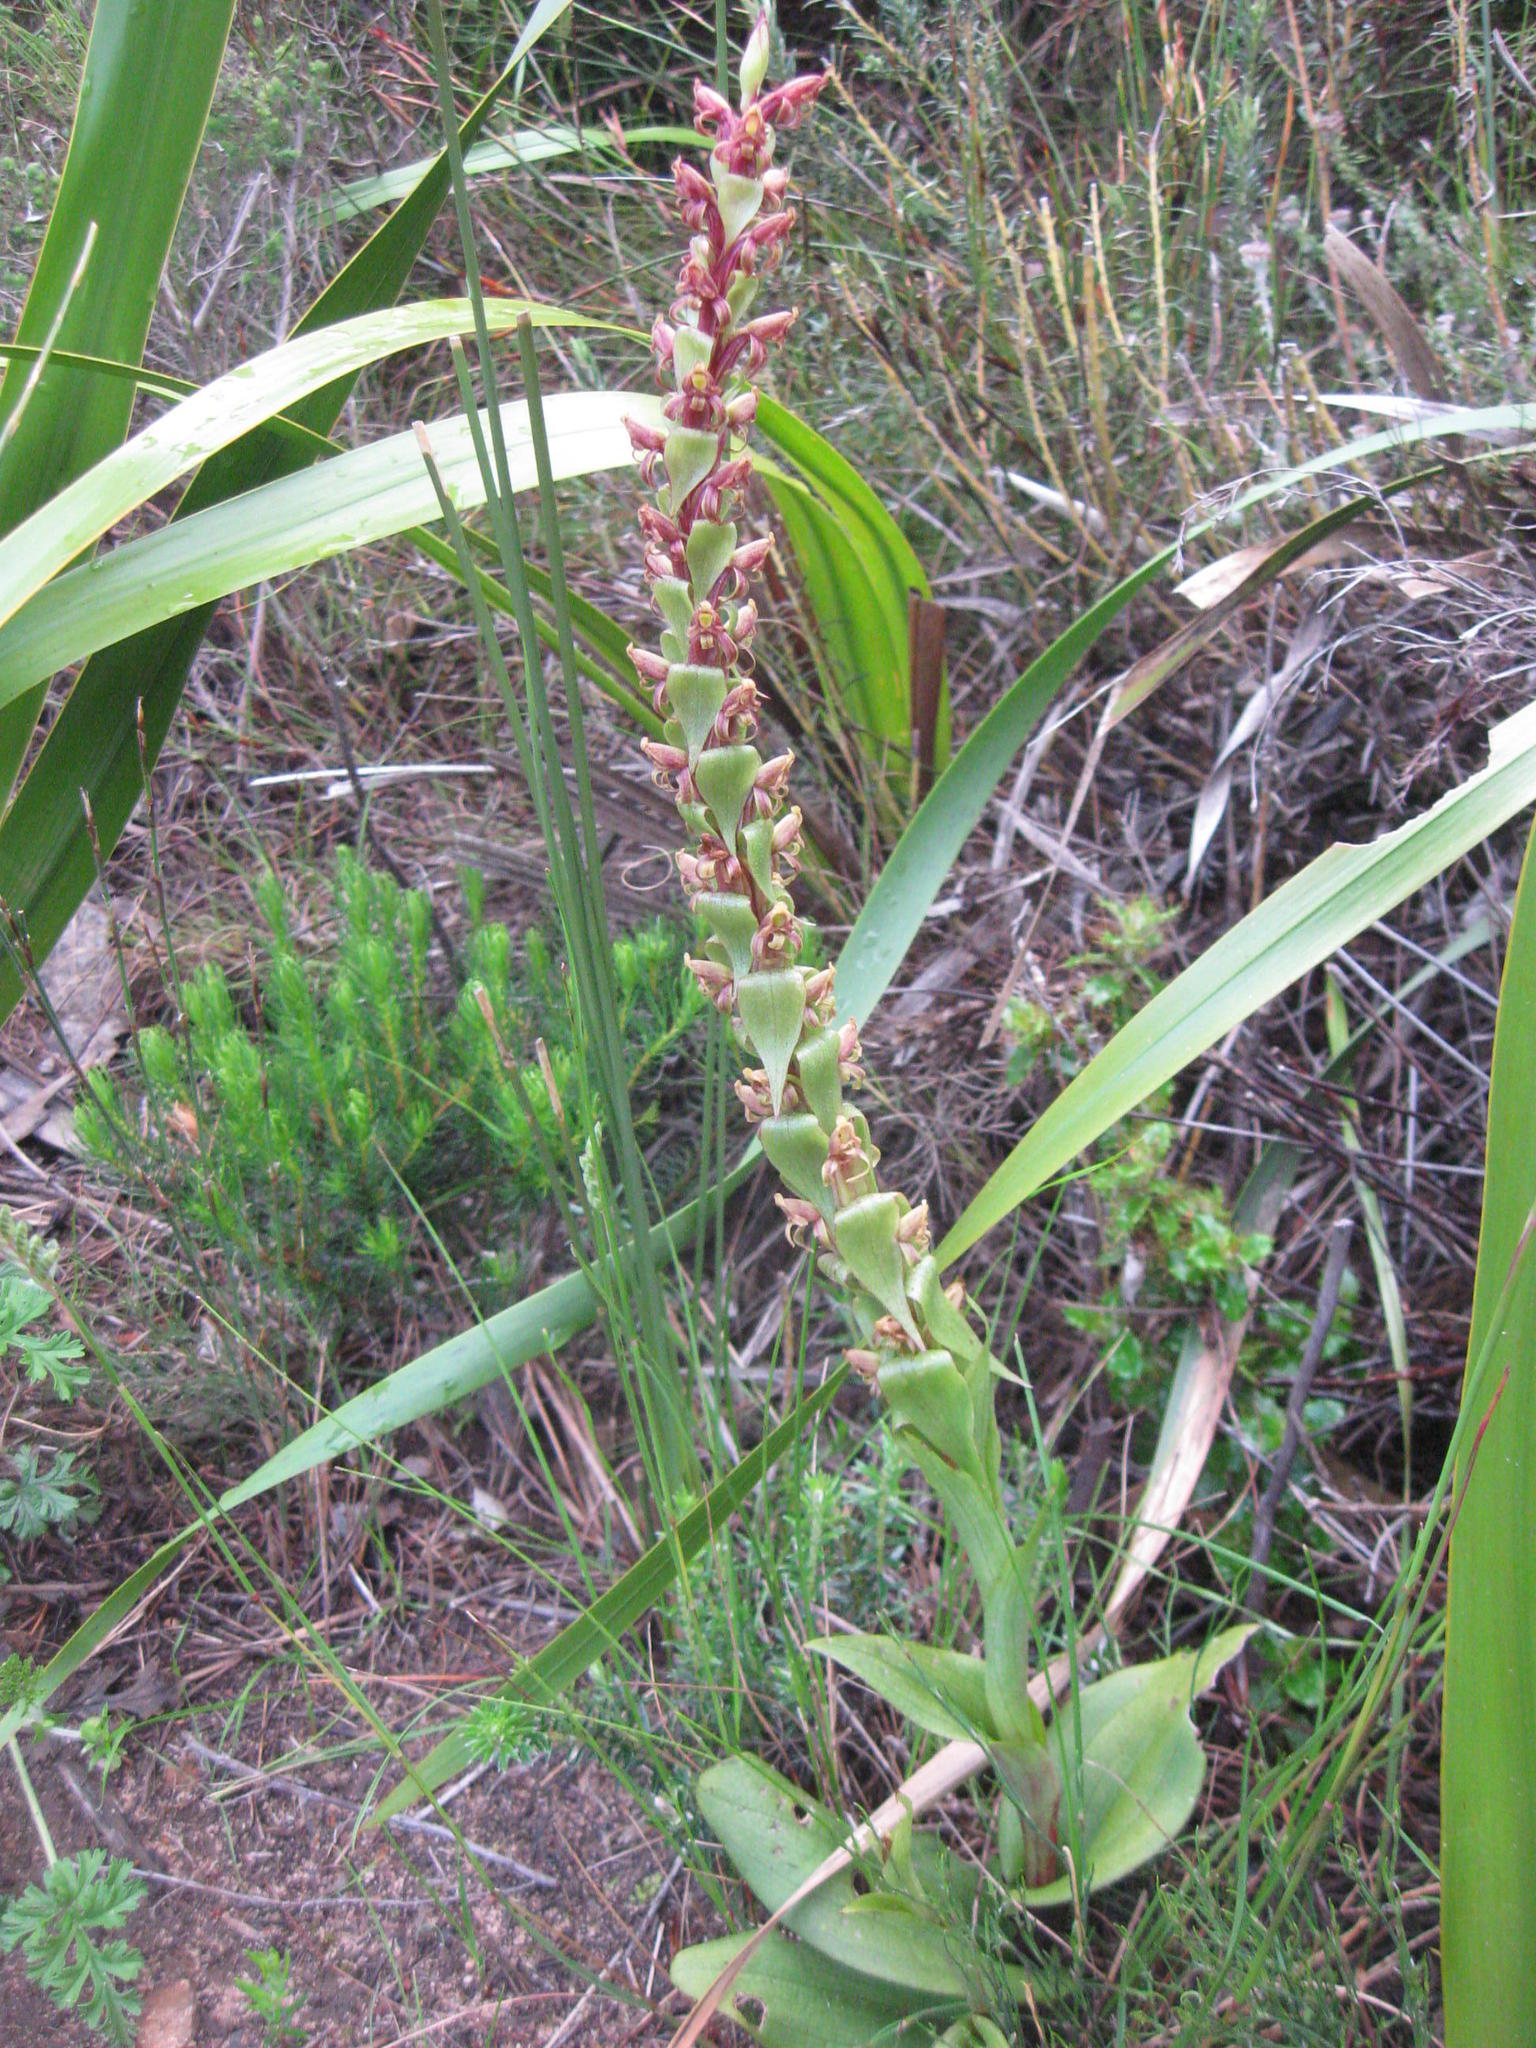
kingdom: Plantae
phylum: Tracheophyta
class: Liliopsida
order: Asparagales
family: Orchidaceae
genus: Satyrium
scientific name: Satyrium lupulinum
